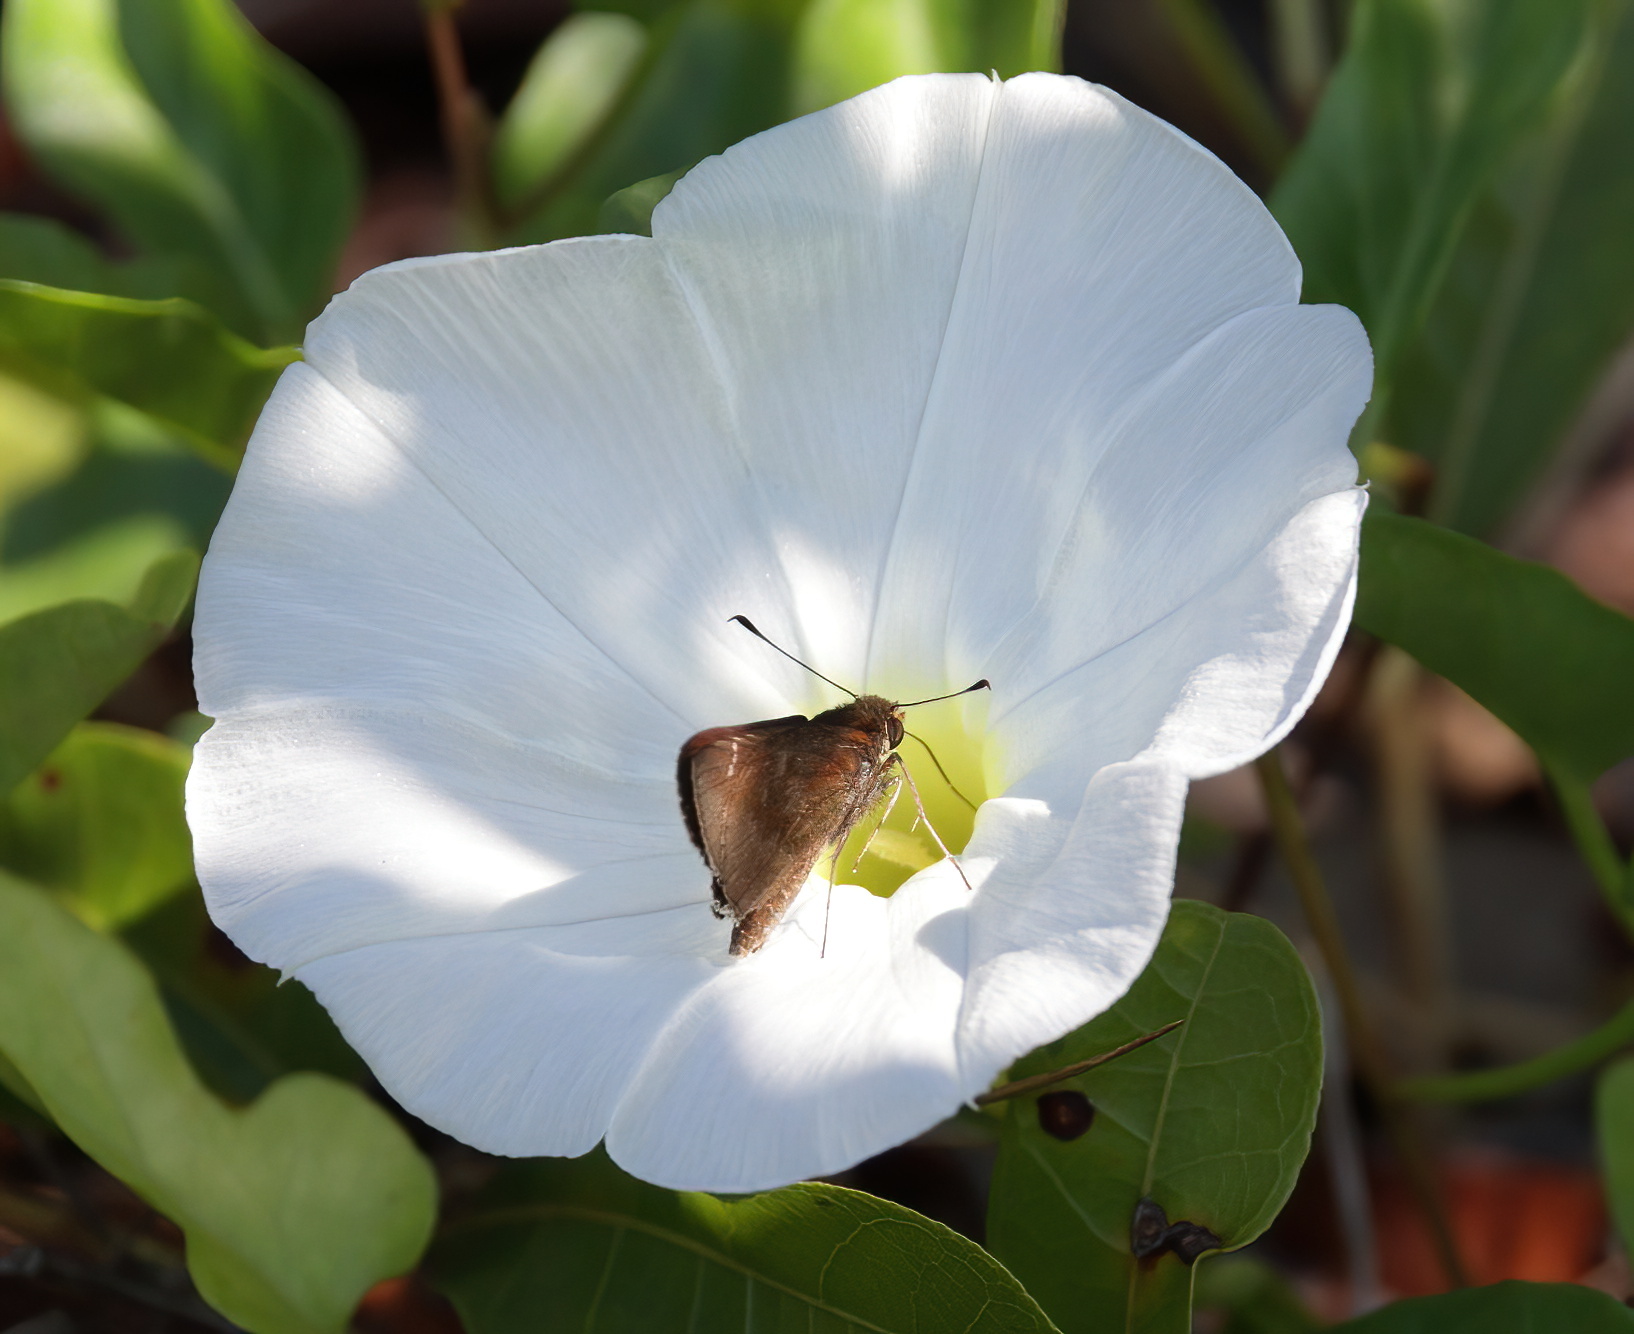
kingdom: Animalia
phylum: Arthropoda
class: Insecta
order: Lepidoptera
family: Hesperiidae
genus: Lerema
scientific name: Lerema accius
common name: Clouded skipper
